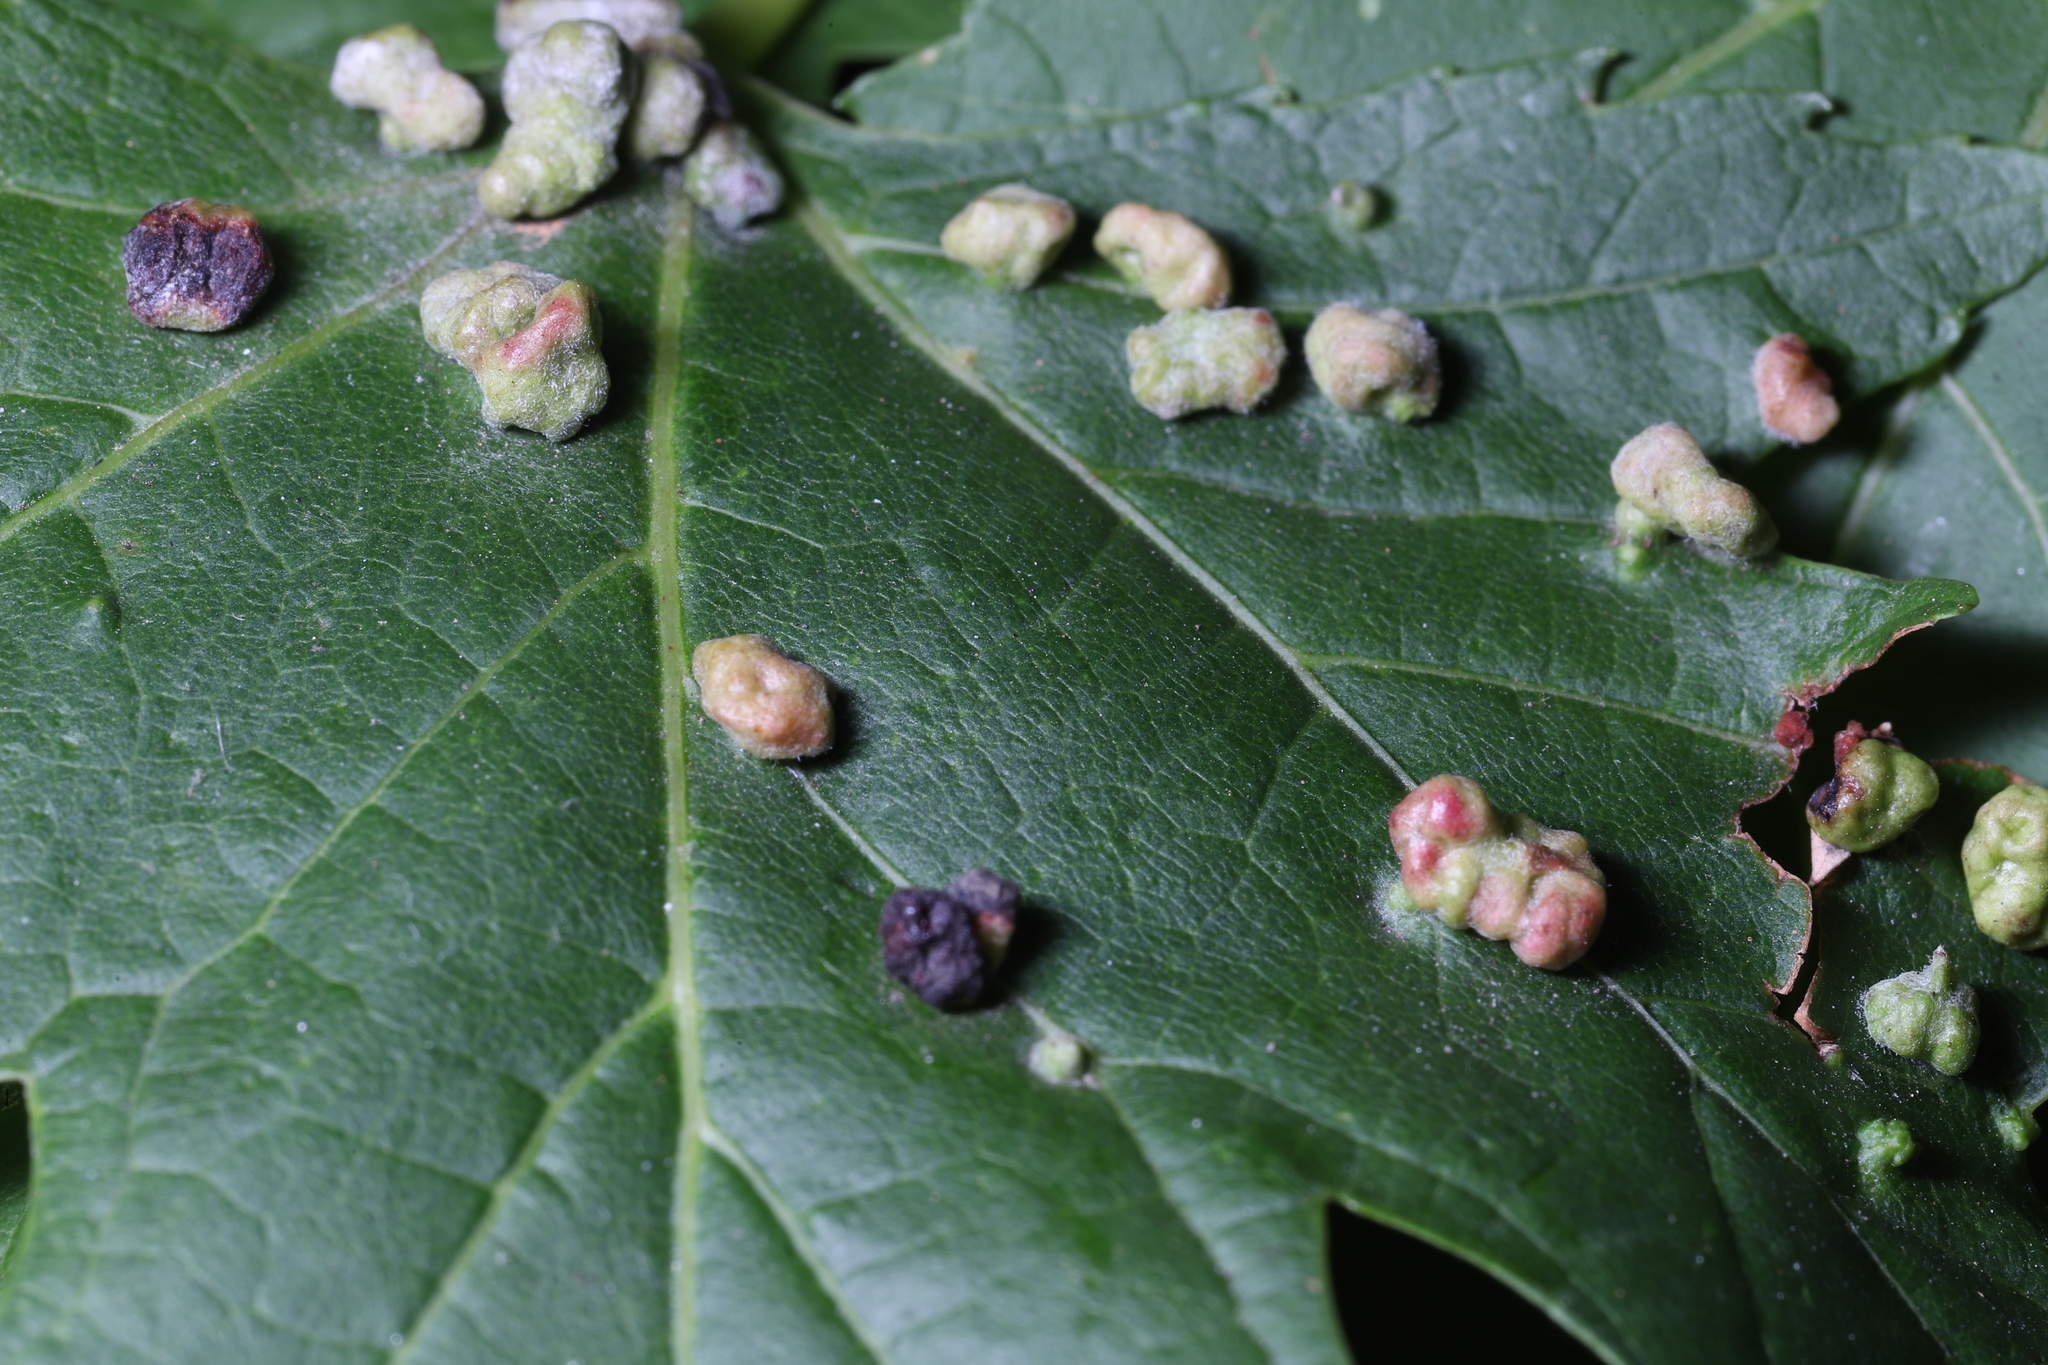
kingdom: Animalia
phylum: Arthropoda
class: Arachnida
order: Trombidiformes
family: Eriophyidae
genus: Vasates
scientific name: Vasates quadripedes
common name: Maple bladder gall mite
